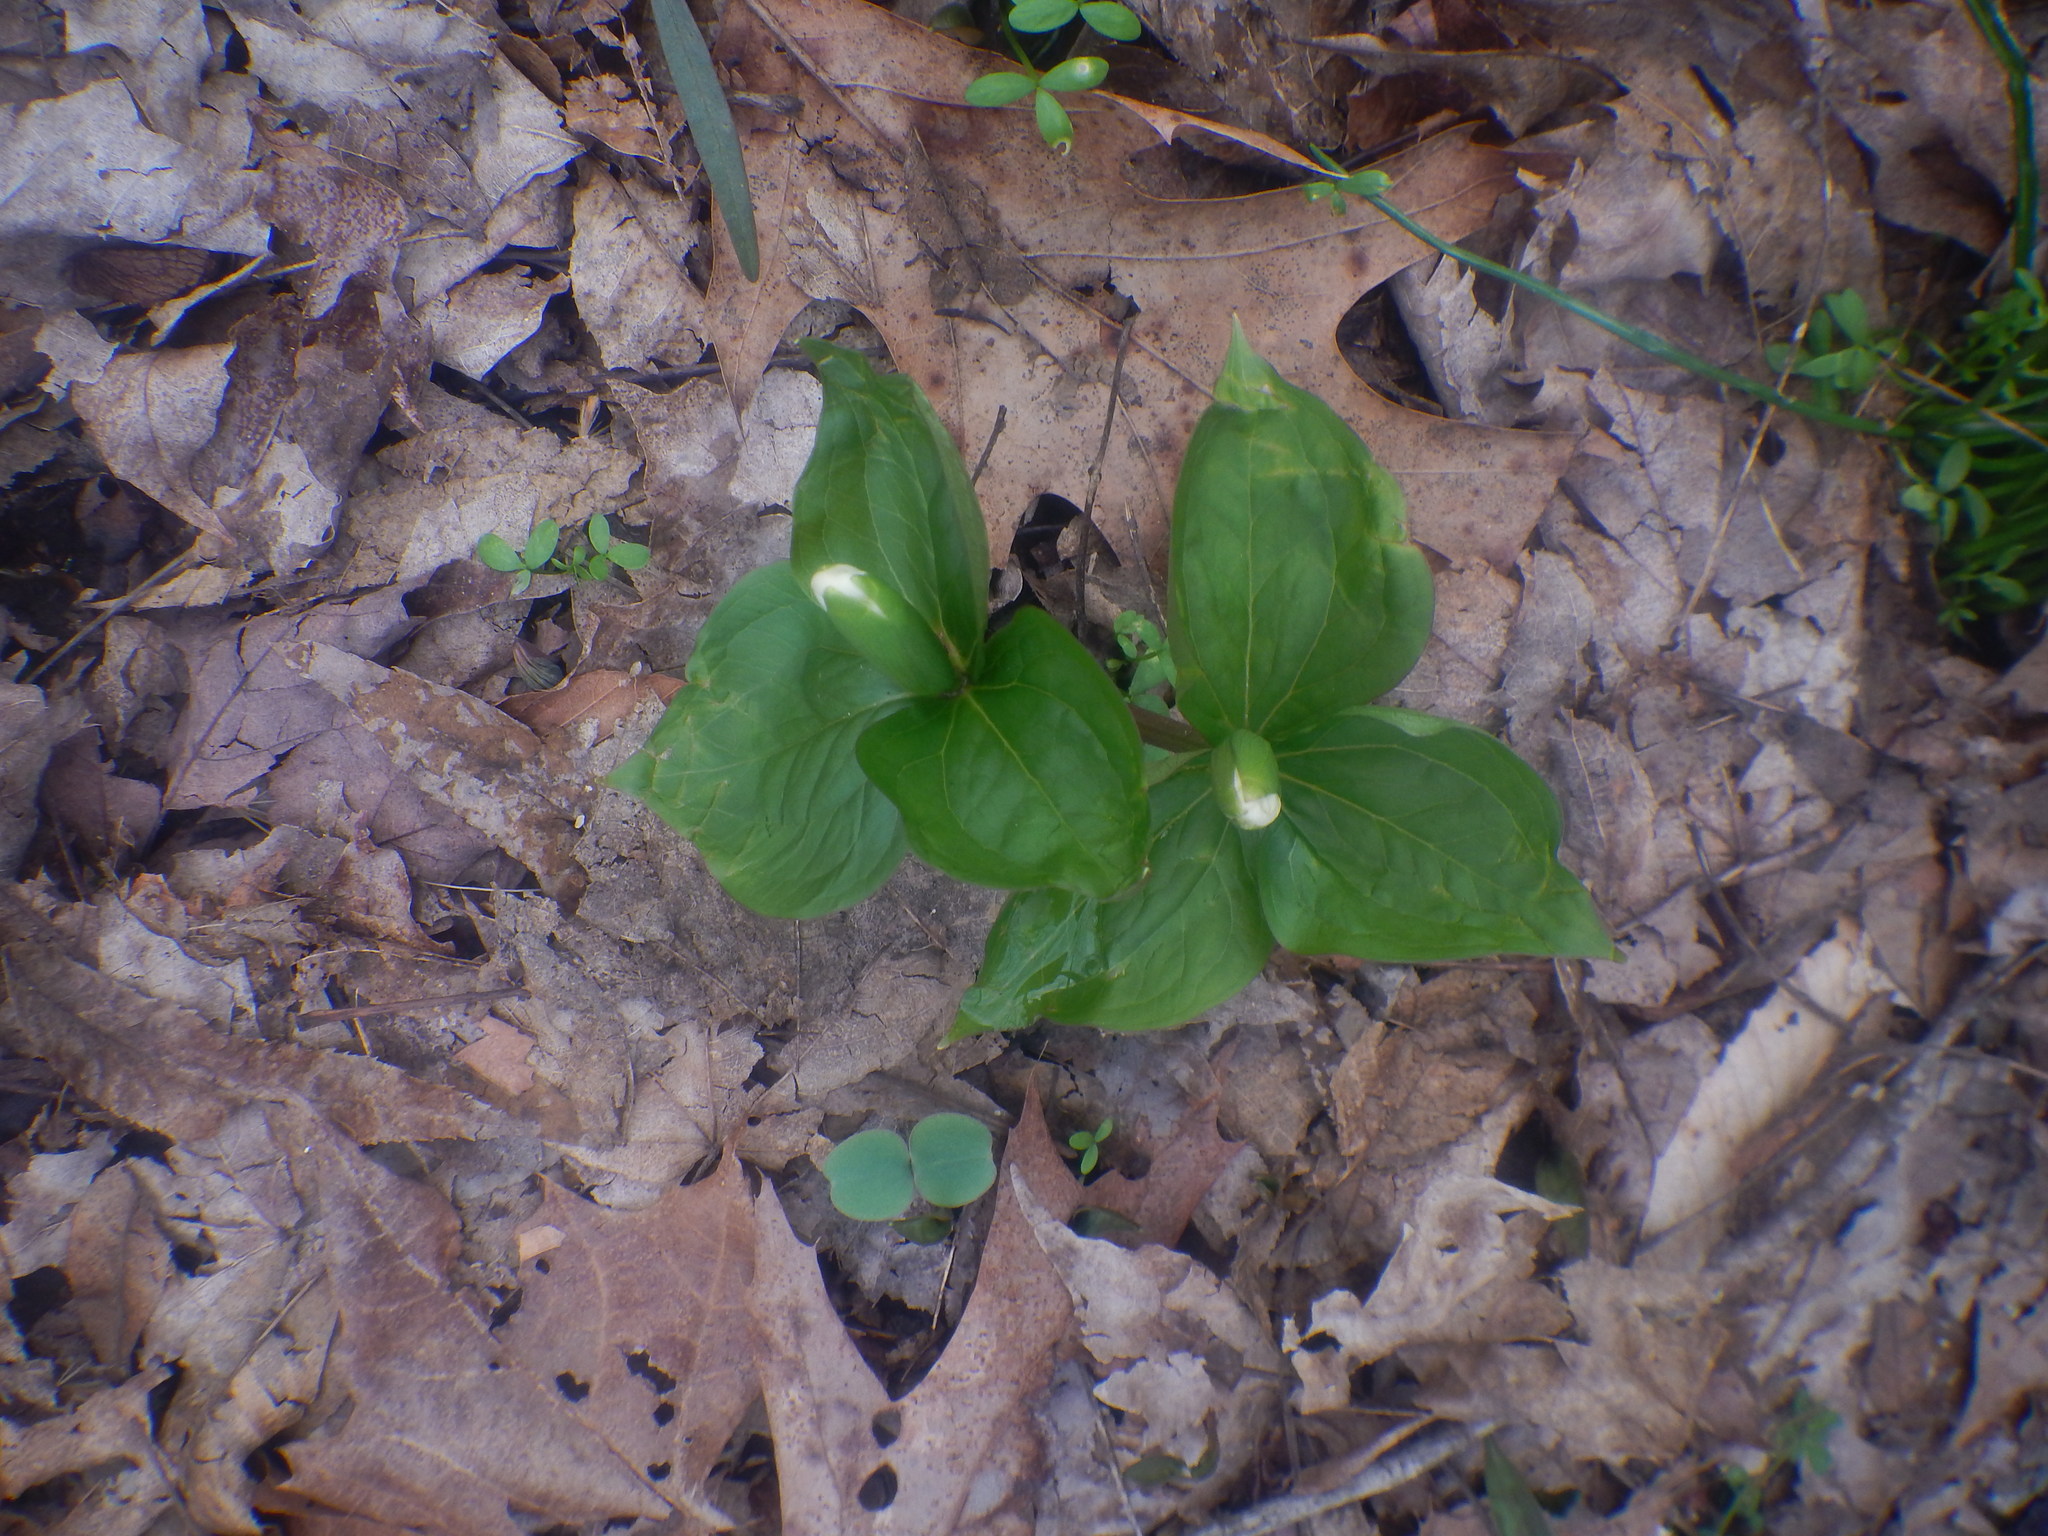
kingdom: Plantae
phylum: Tracheophyta
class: Liliopsida
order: Liliales
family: Melanthiaceae
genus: Trillium
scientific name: Trillium grandiflorum
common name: Great white trillium
